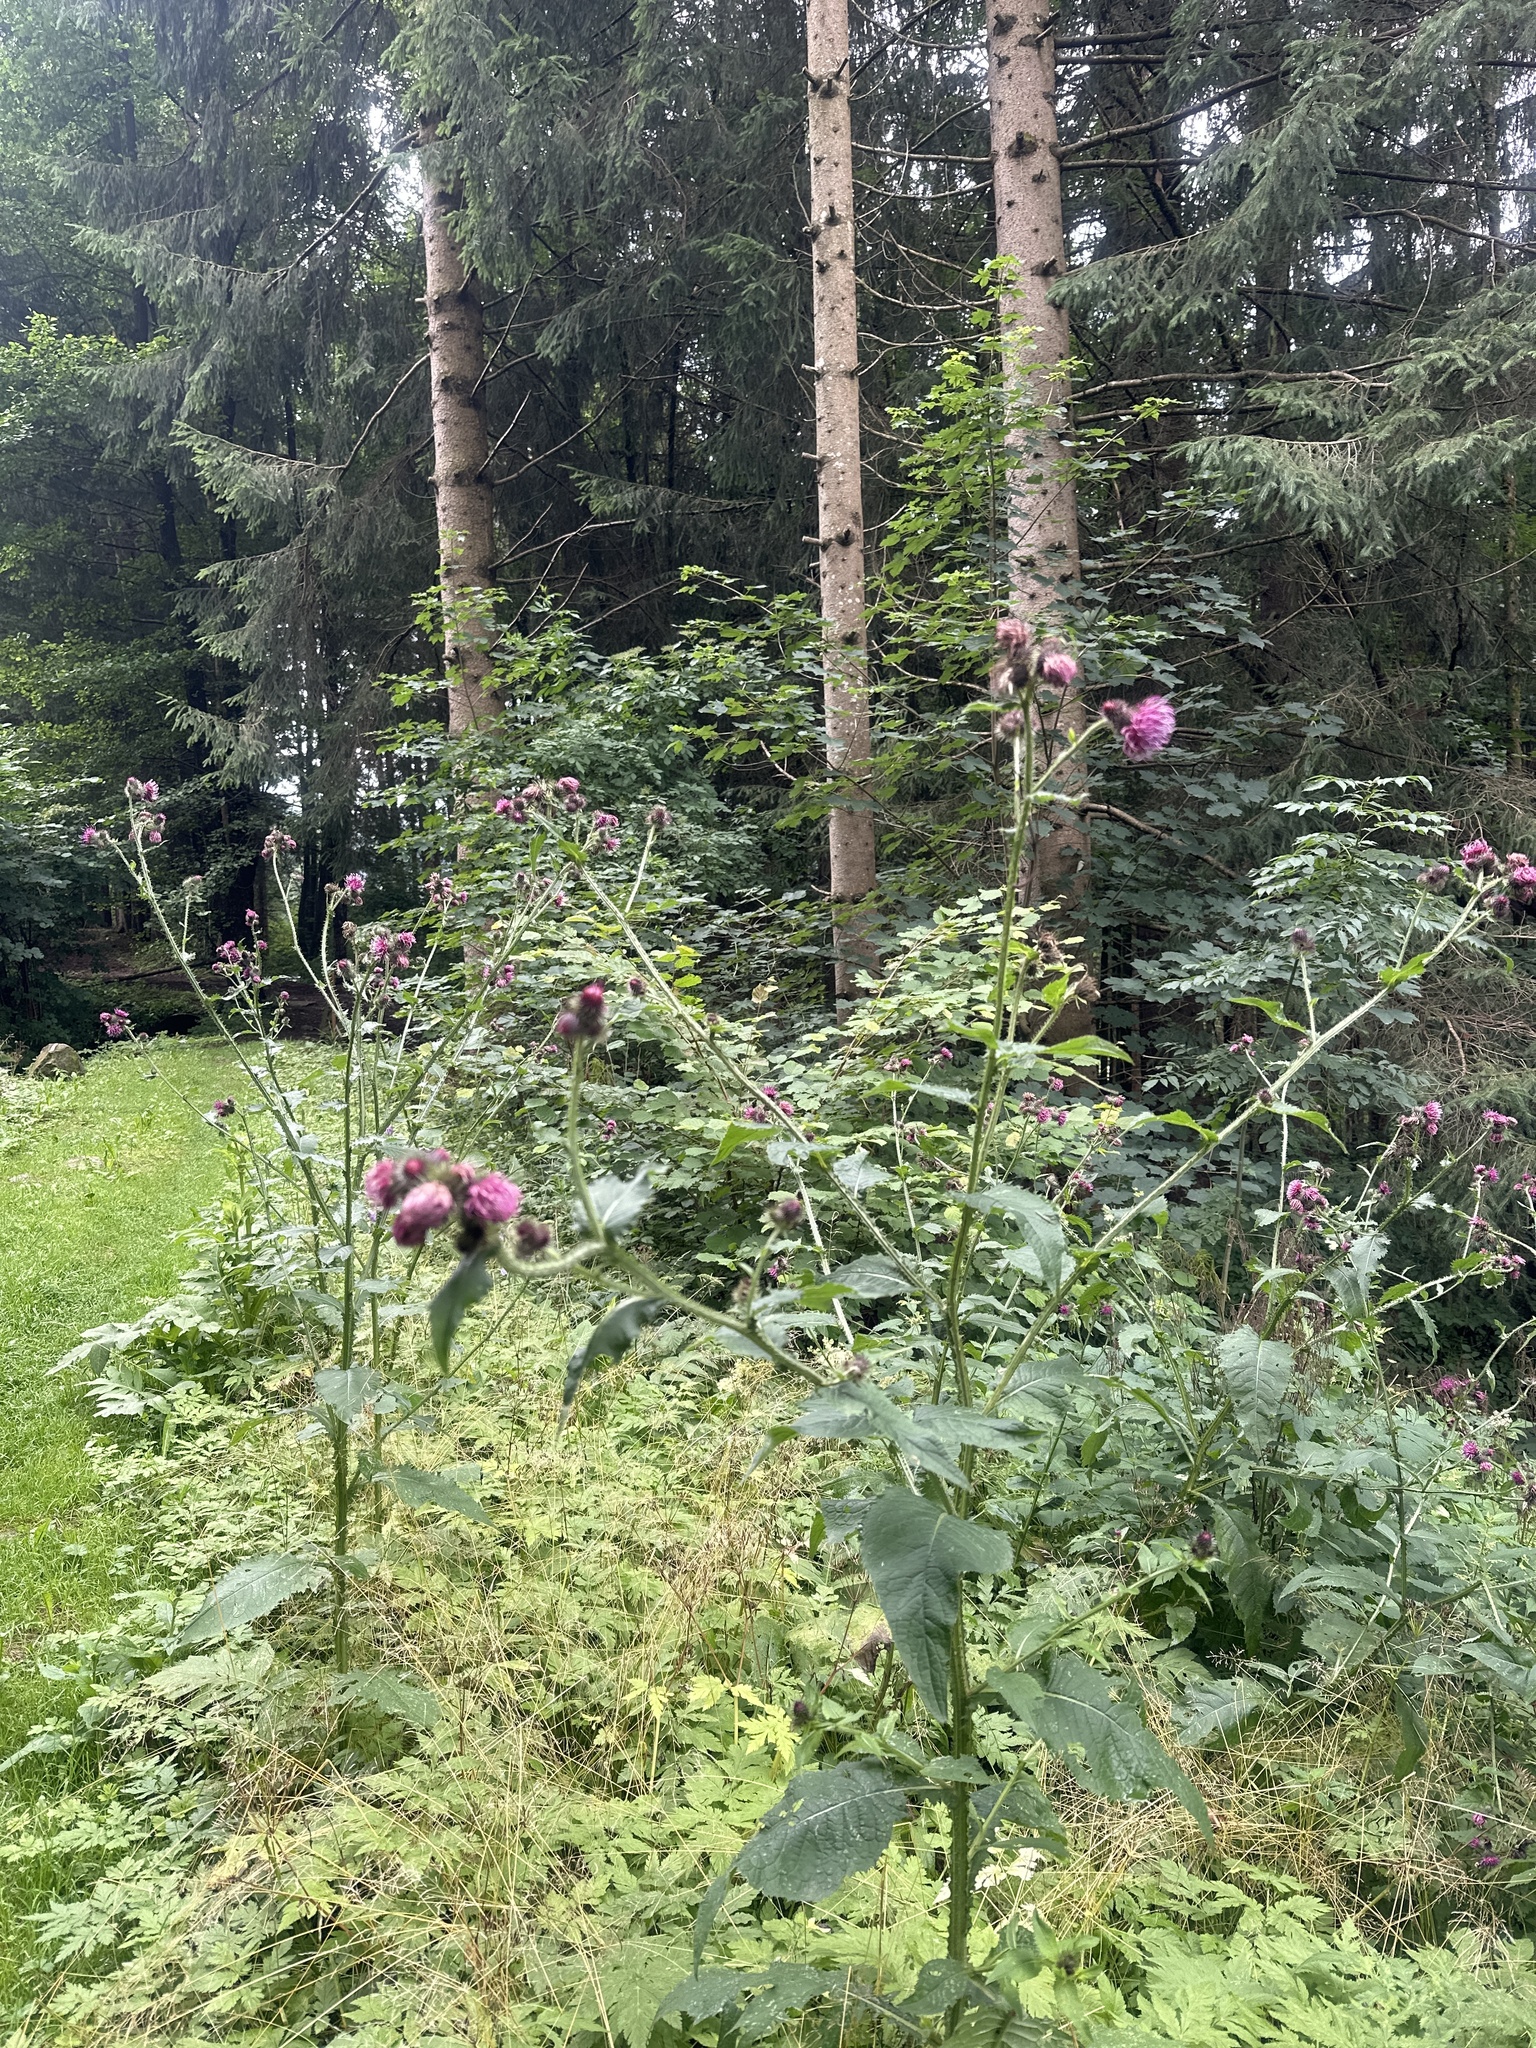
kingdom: Plantae
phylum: Tracheophyta
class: Magnoliopsida
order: Asterales
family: Asteraceae
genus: Carduus
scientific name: Carduus personata
